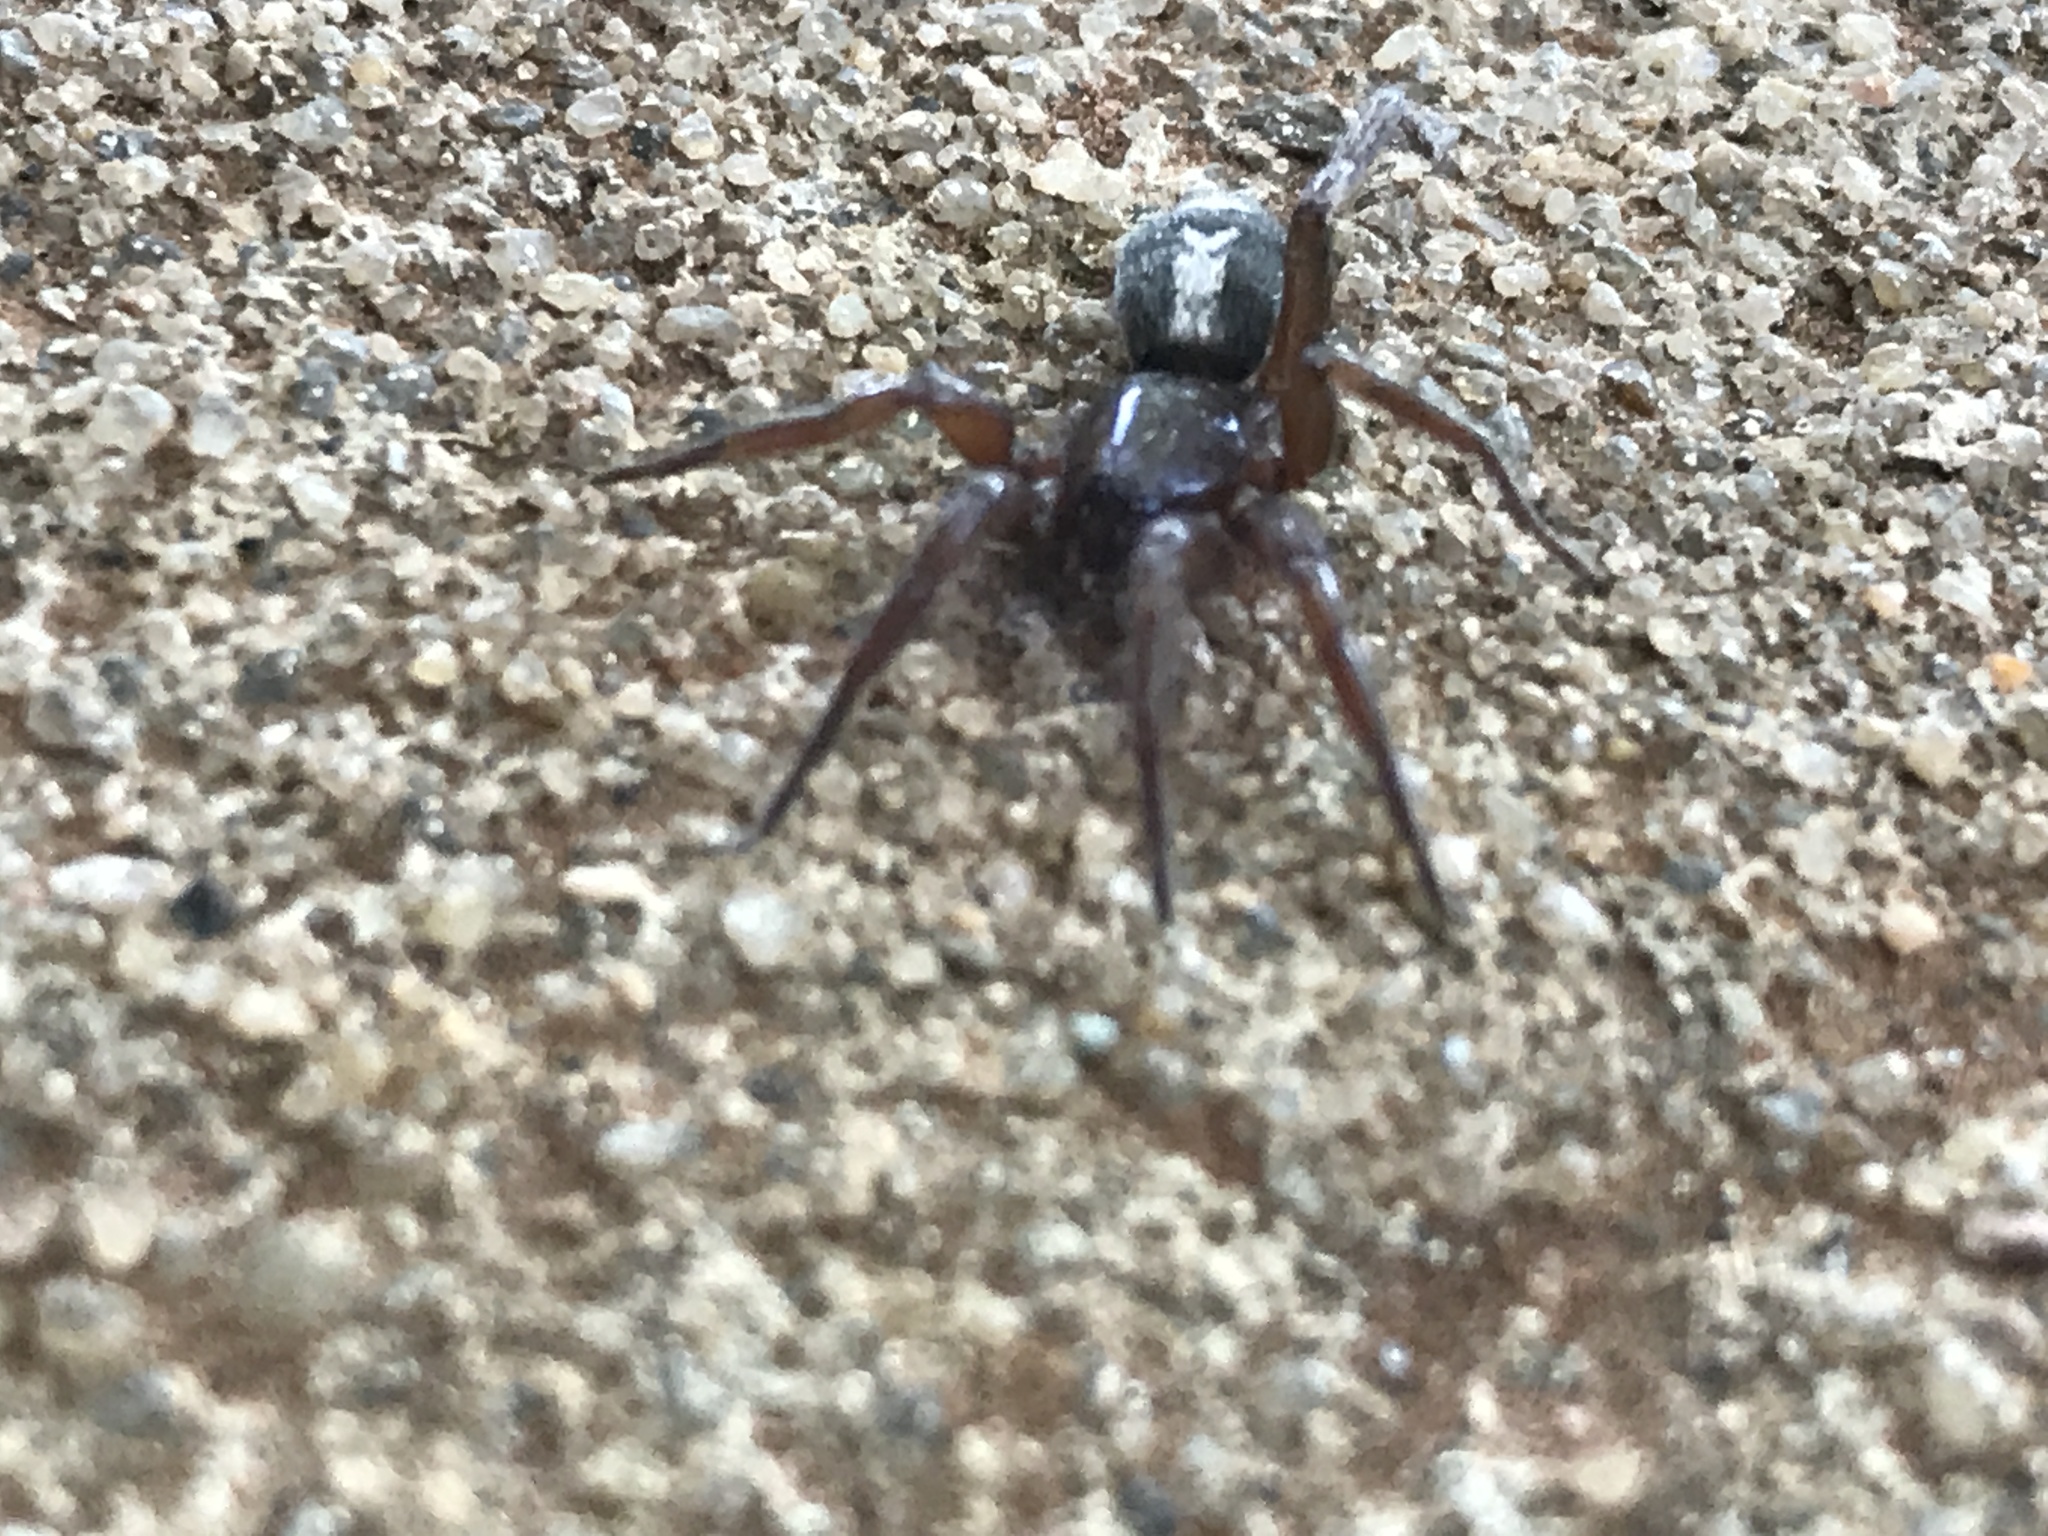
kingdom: Animalia
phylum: Arthropoda
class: Arachnida
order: Araneae
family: Gnaphosidae
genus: Herpyllus
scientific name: Herpyllus ecclesiasticus
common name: Eastern parson spider
